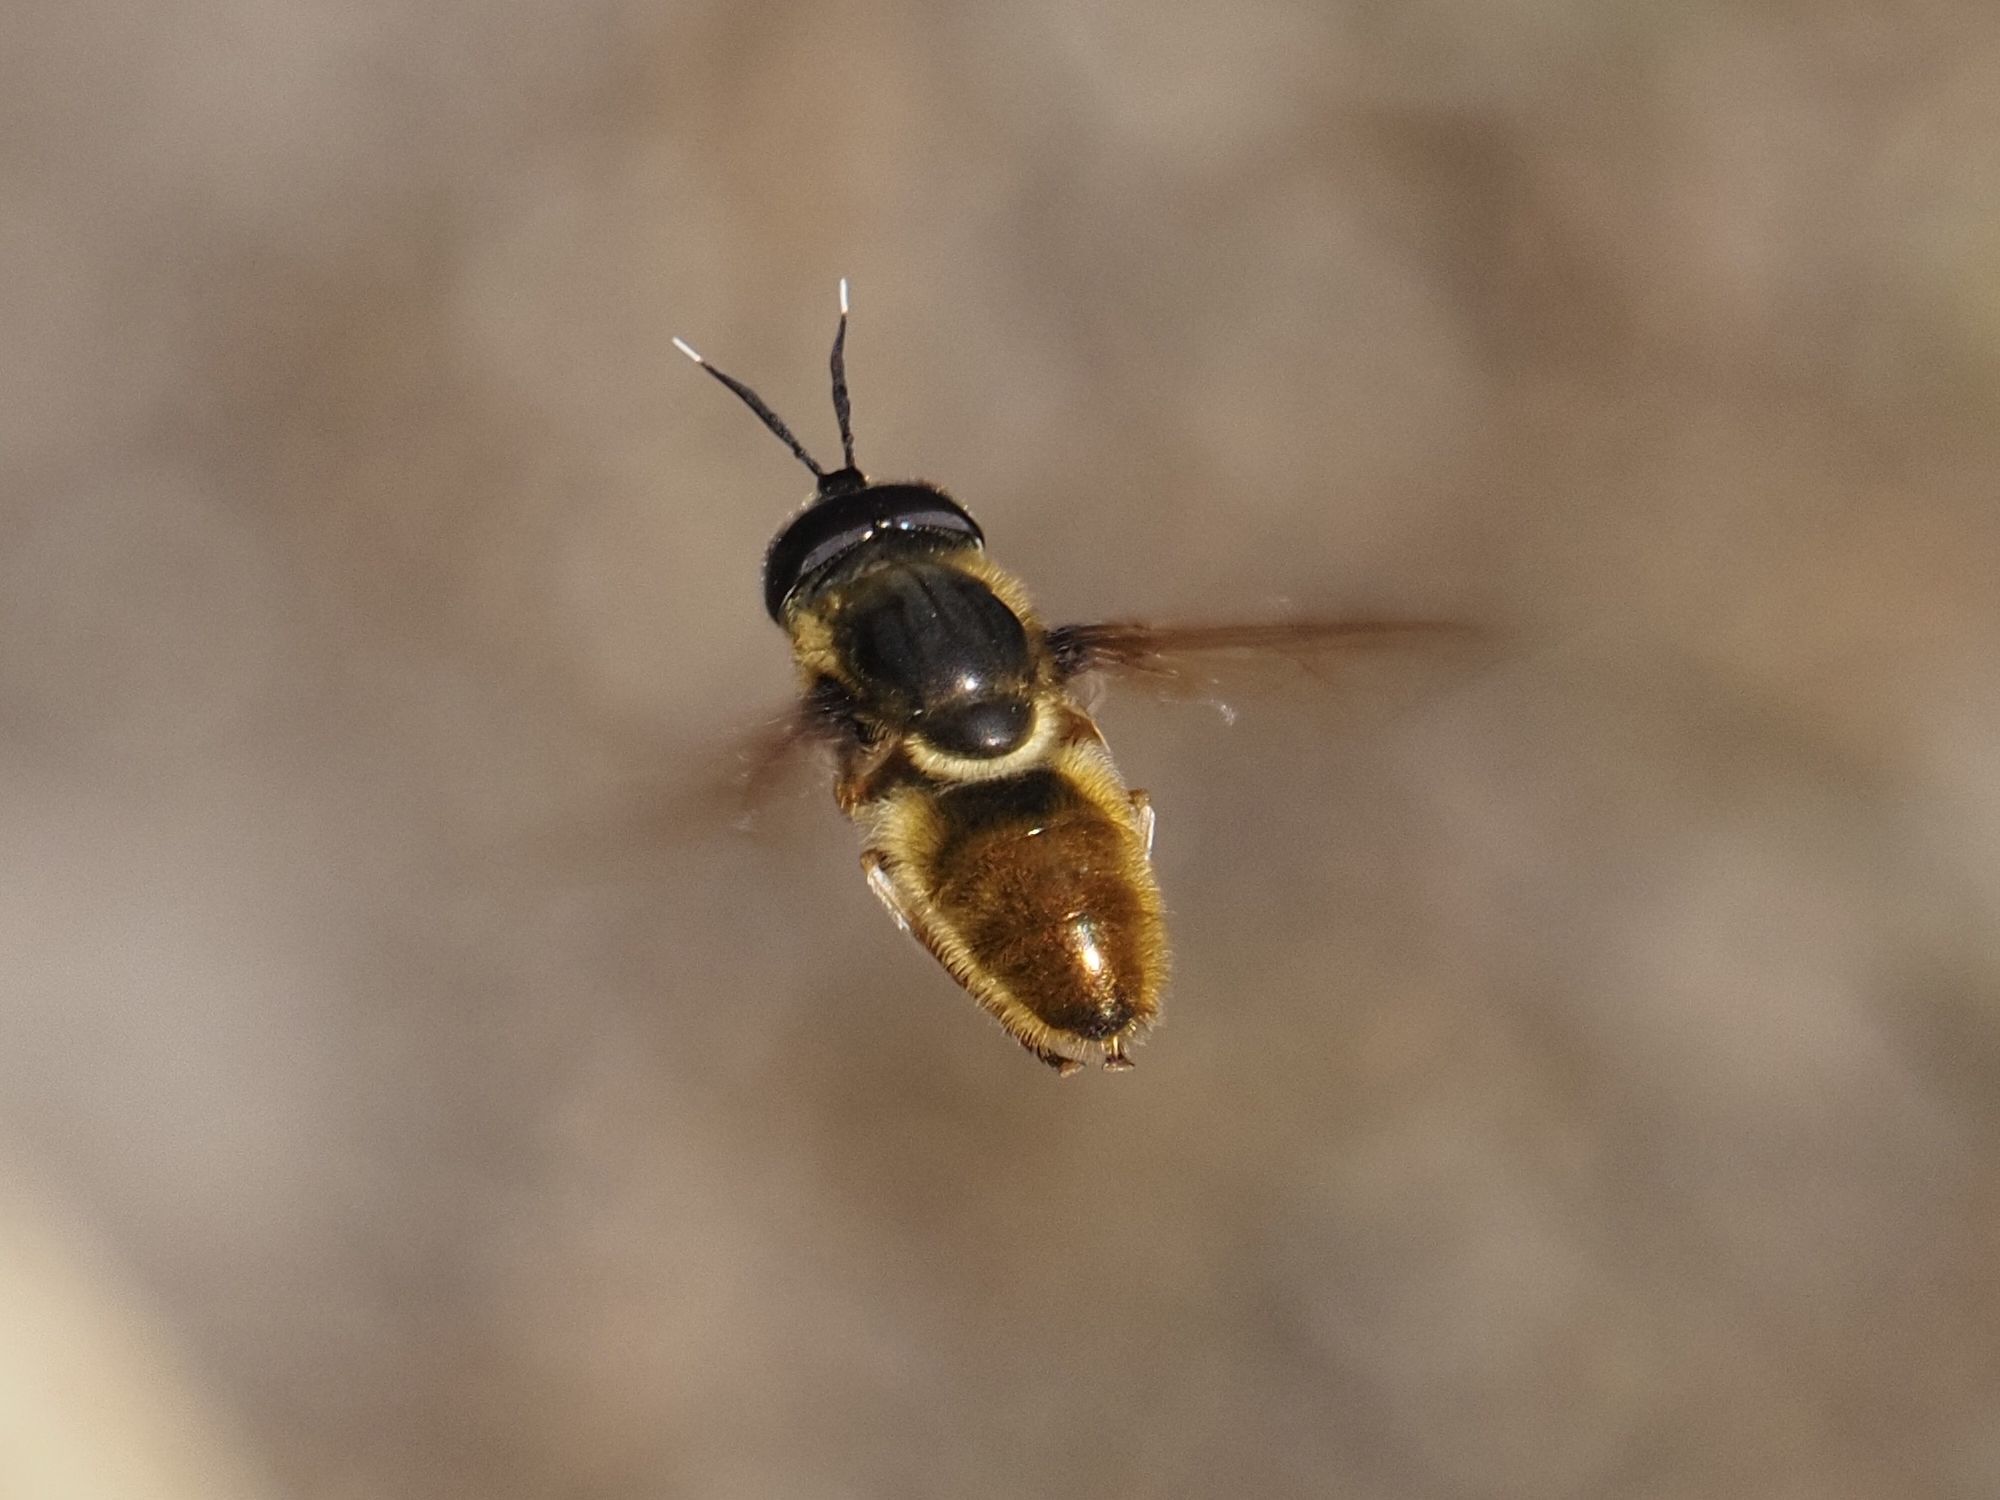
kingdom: Animalia
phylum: Arthropoda
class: Insecta
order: Diptera
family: Syrphidae
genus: Callicera
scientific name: Callicera aenea
